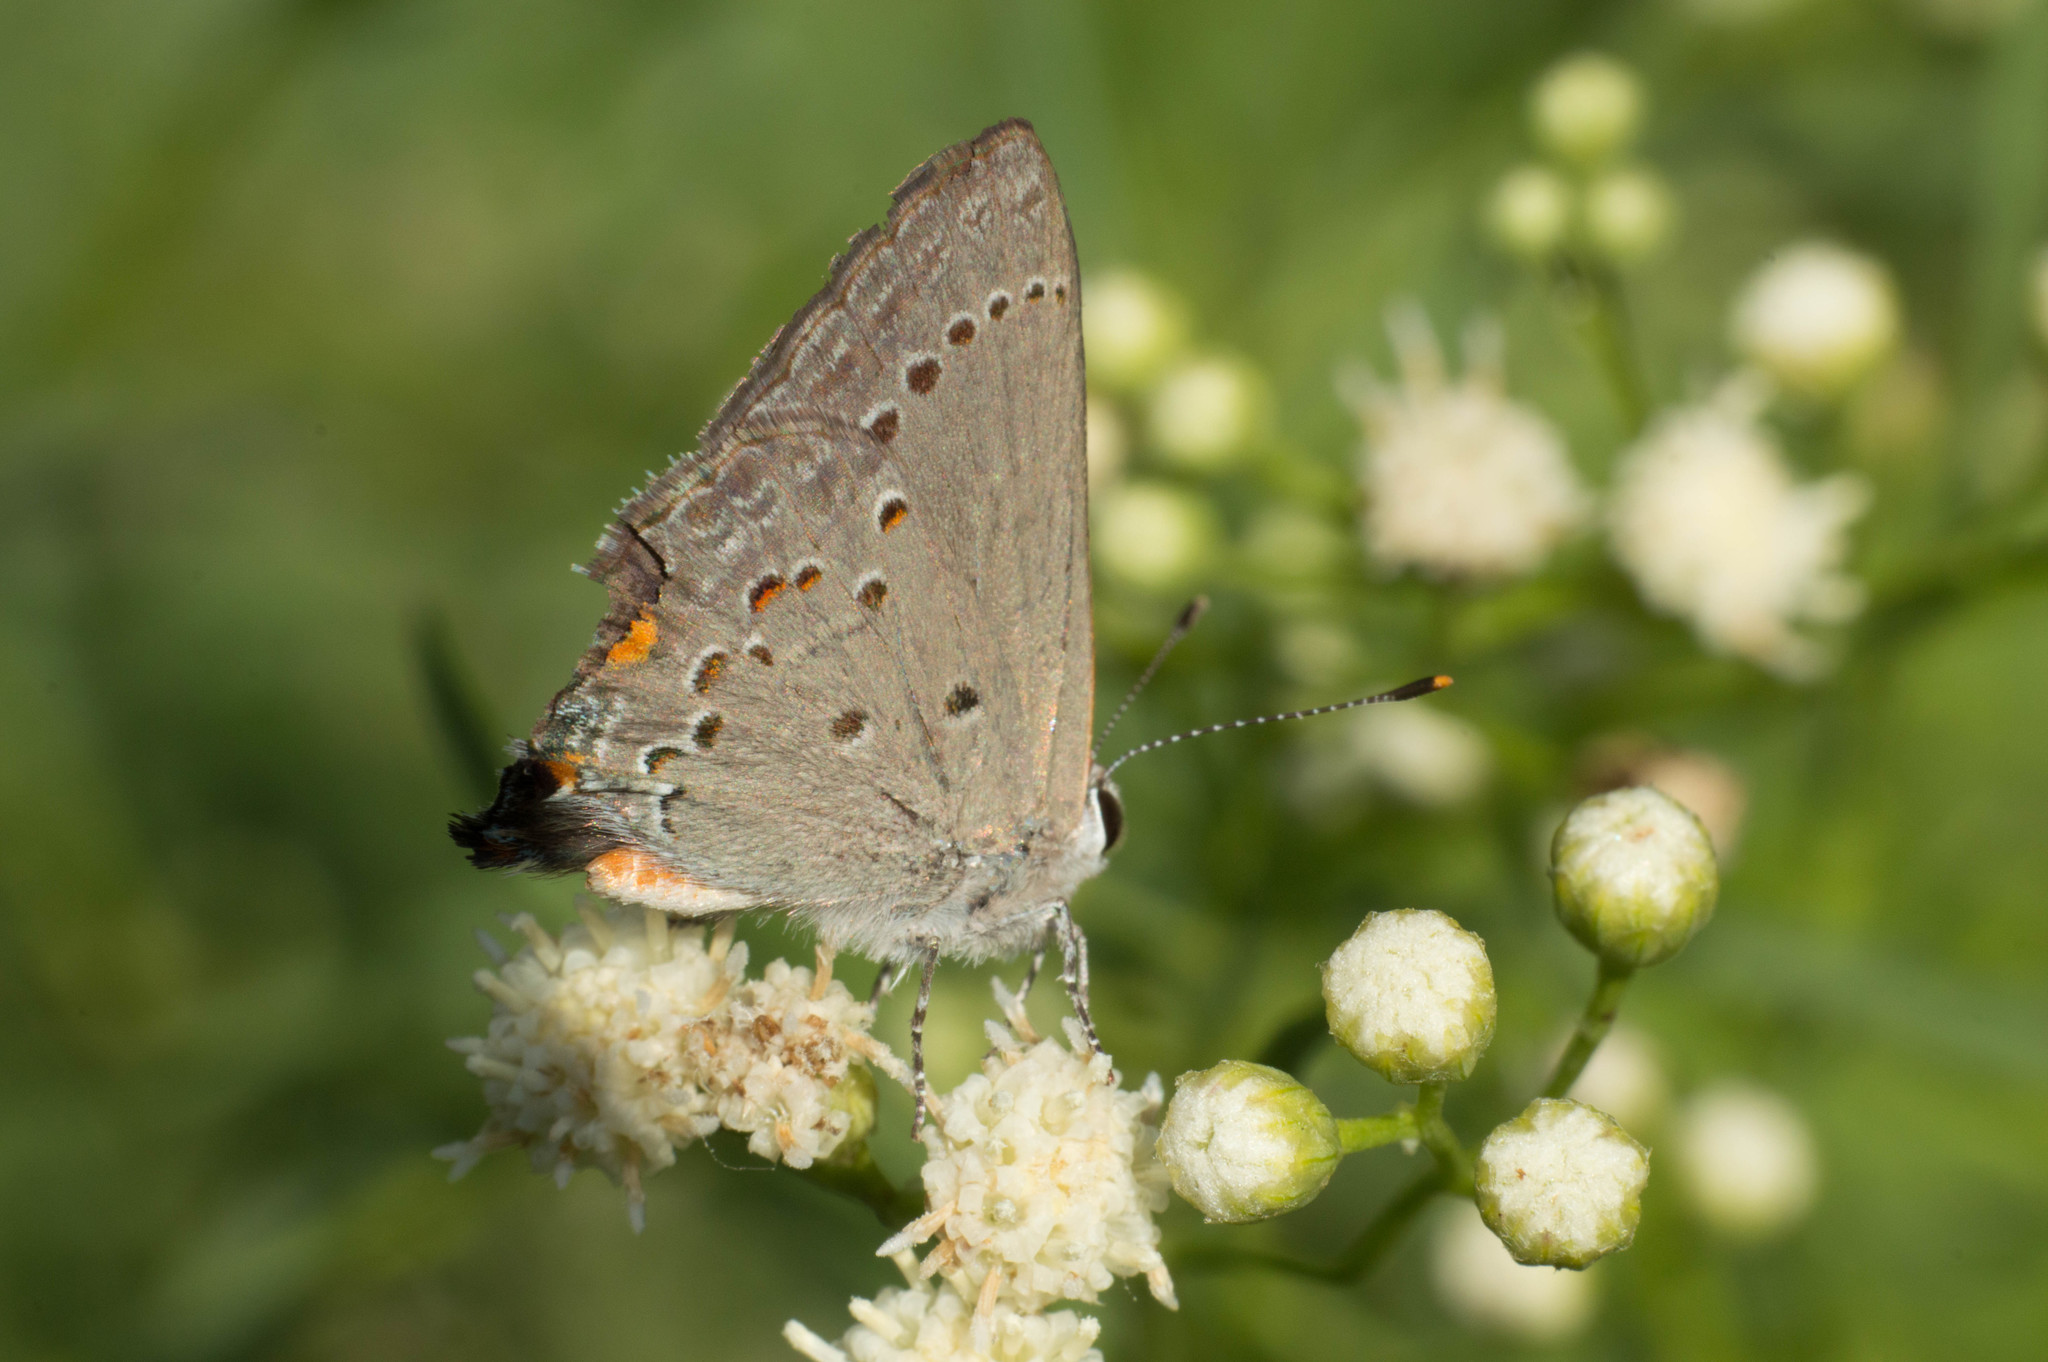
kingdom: Animalia
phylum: Arthropoda
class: Insecta
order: Lepidoptera
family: Lycaenidae
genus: Strymon
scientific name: Strymon eurytulus
